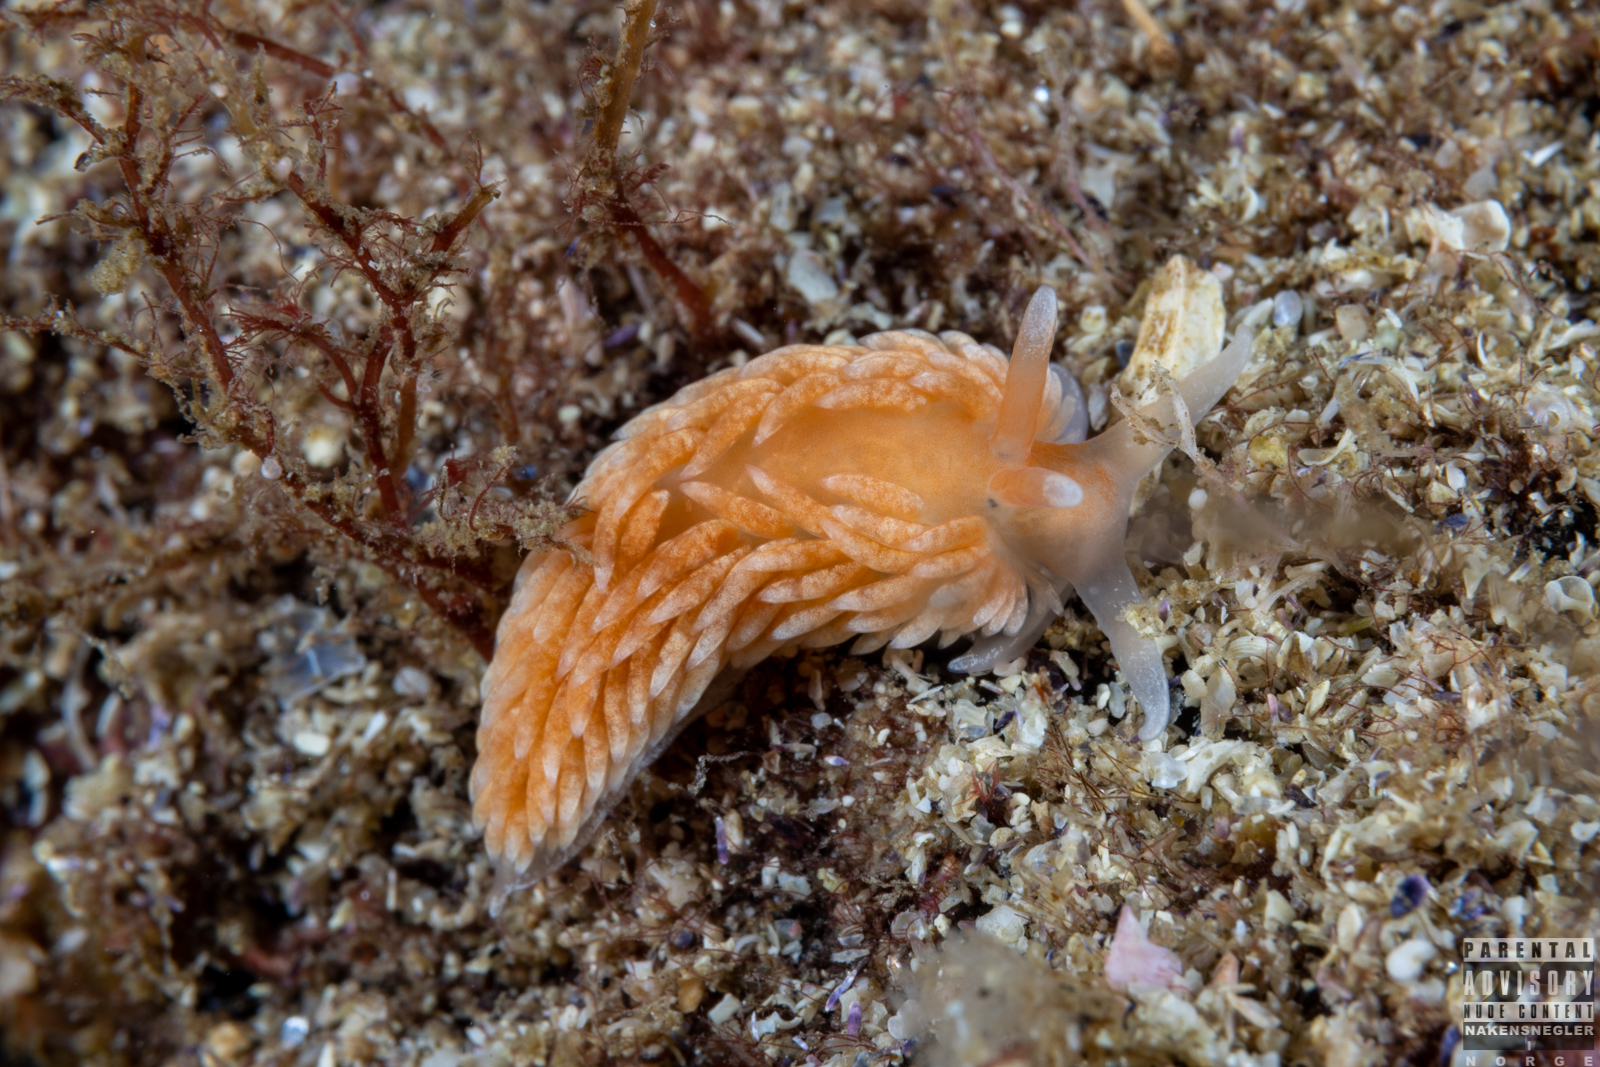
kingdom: Animalia
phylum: Mollusca
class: Gastropoda
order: Nudibranchia
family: Aeolidiidae
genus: Aeolidiella
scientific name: Aeolidiella glauca
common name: Orange-brown aeolid
